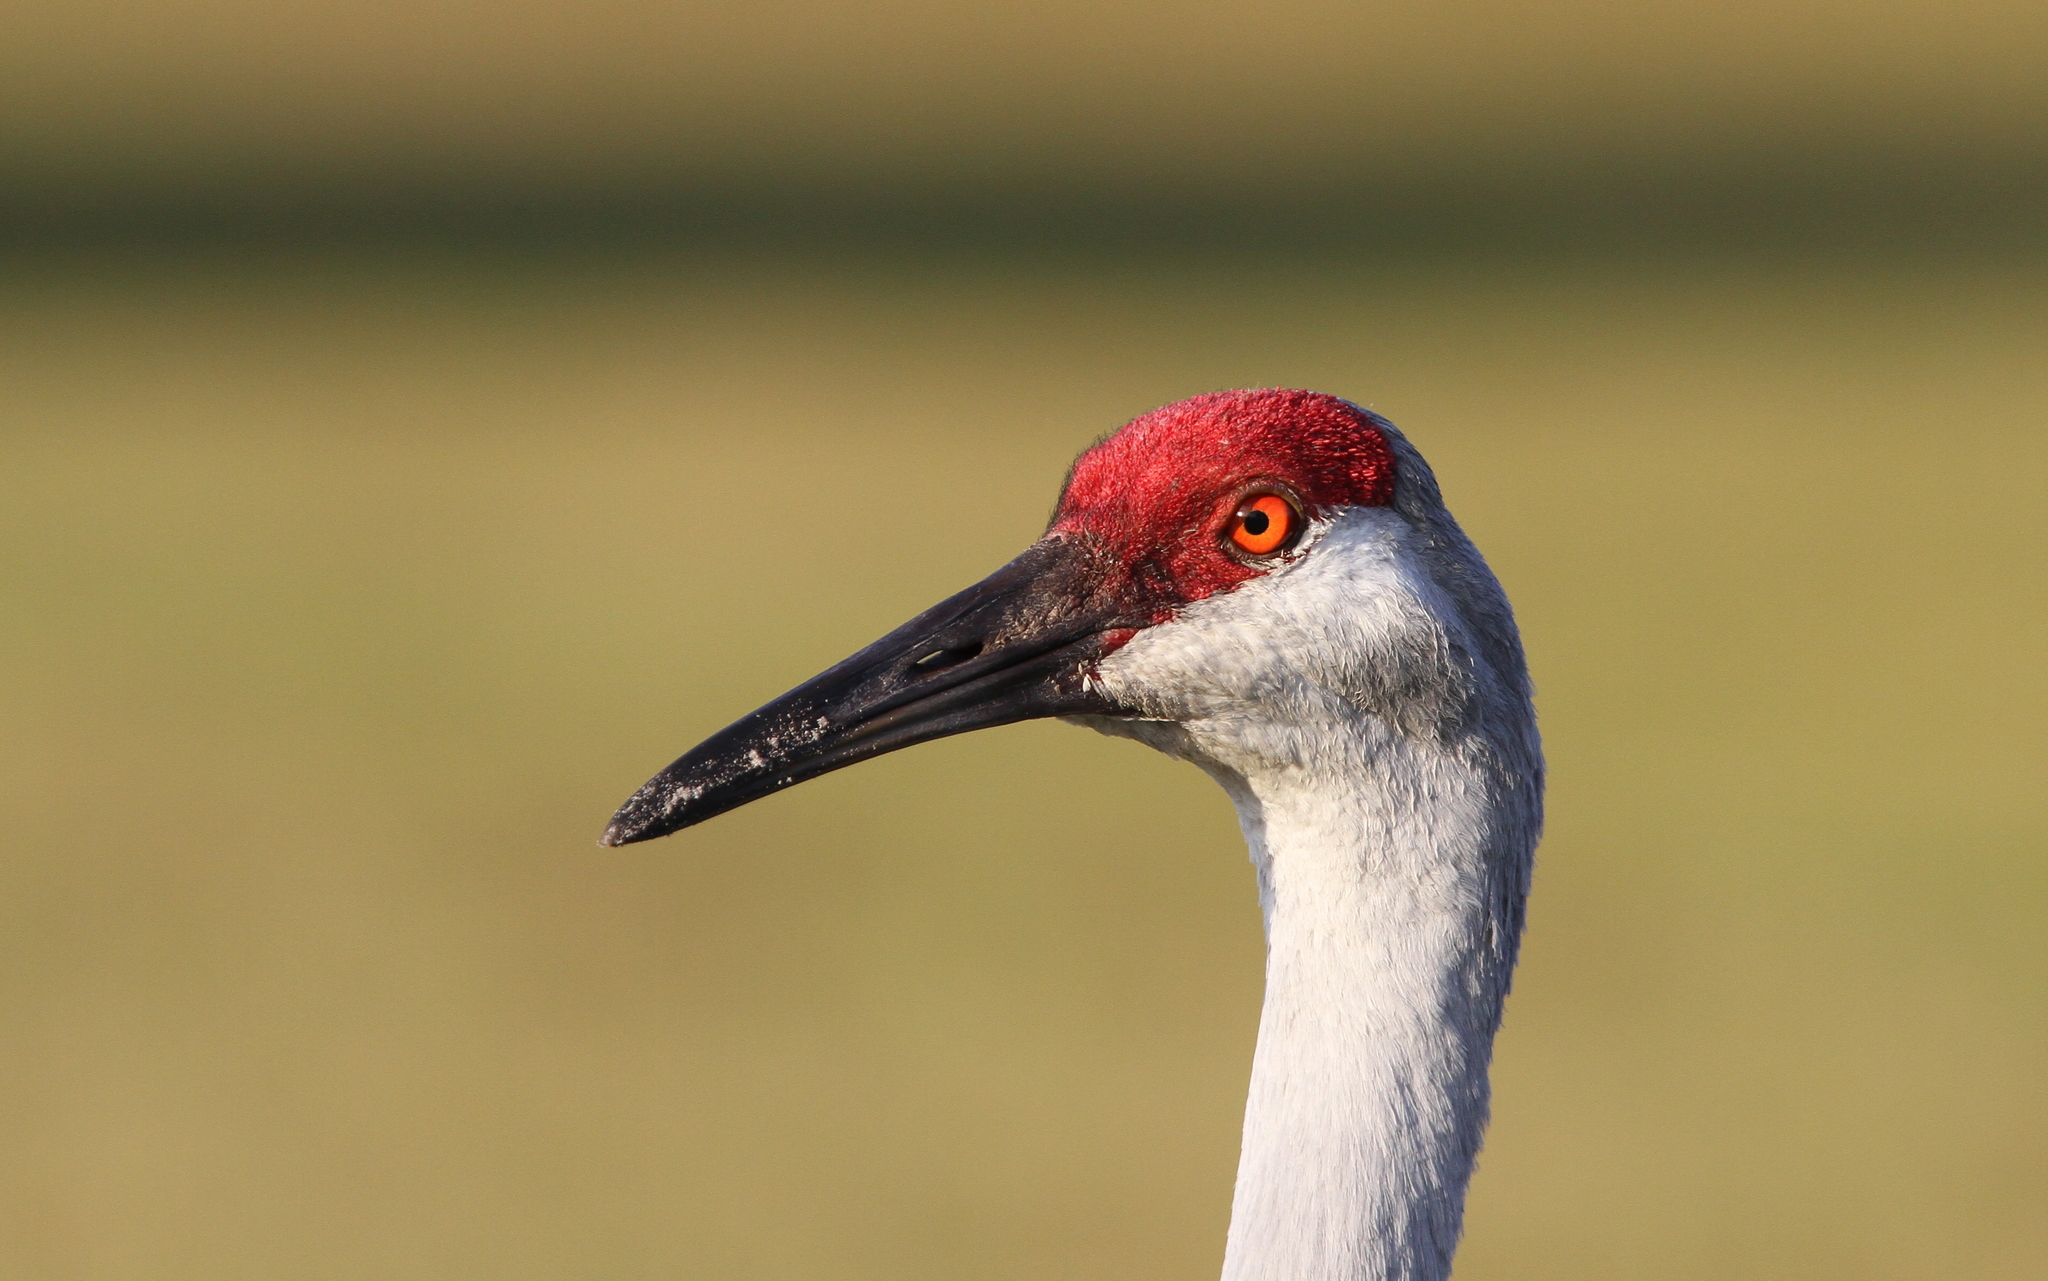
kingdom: Animalia
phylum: Chordata
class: Aves
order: Gruiformes
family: Gruidae
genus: Grus
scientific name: Grus canadensis
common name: Sandhill crane
